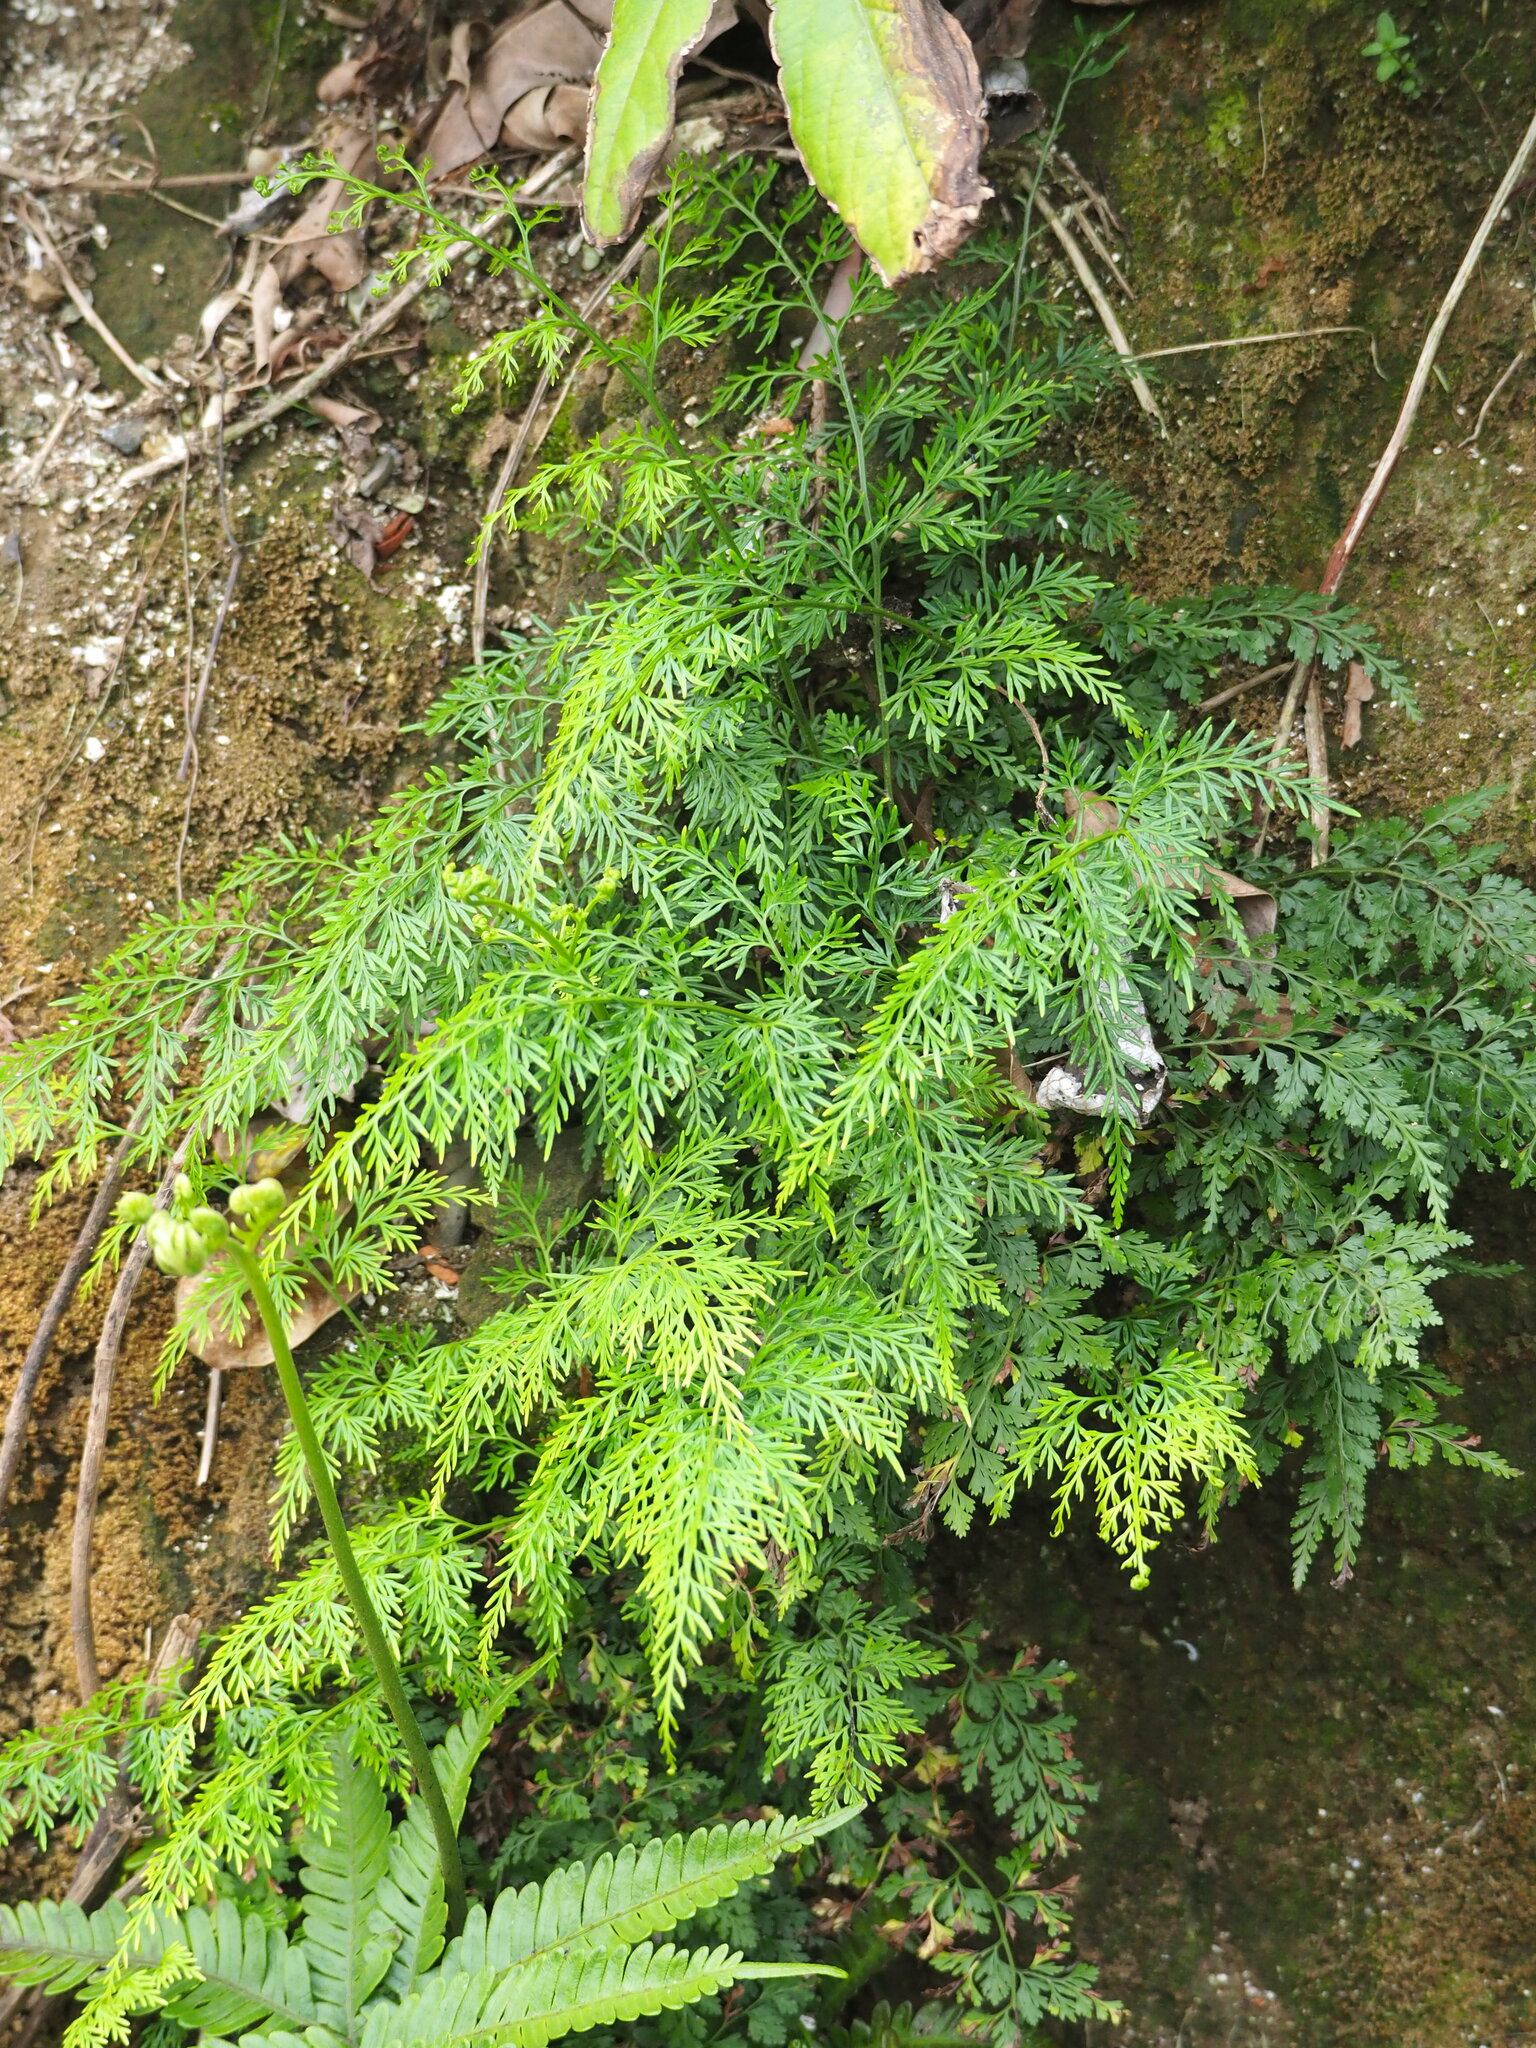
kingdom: Plantae
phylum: Tracheophyta
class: Polypodiopsida
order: Polypodiales
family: Pteridaceae
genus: Onychium
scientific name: Onychium japonicum
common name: Carrot fern
